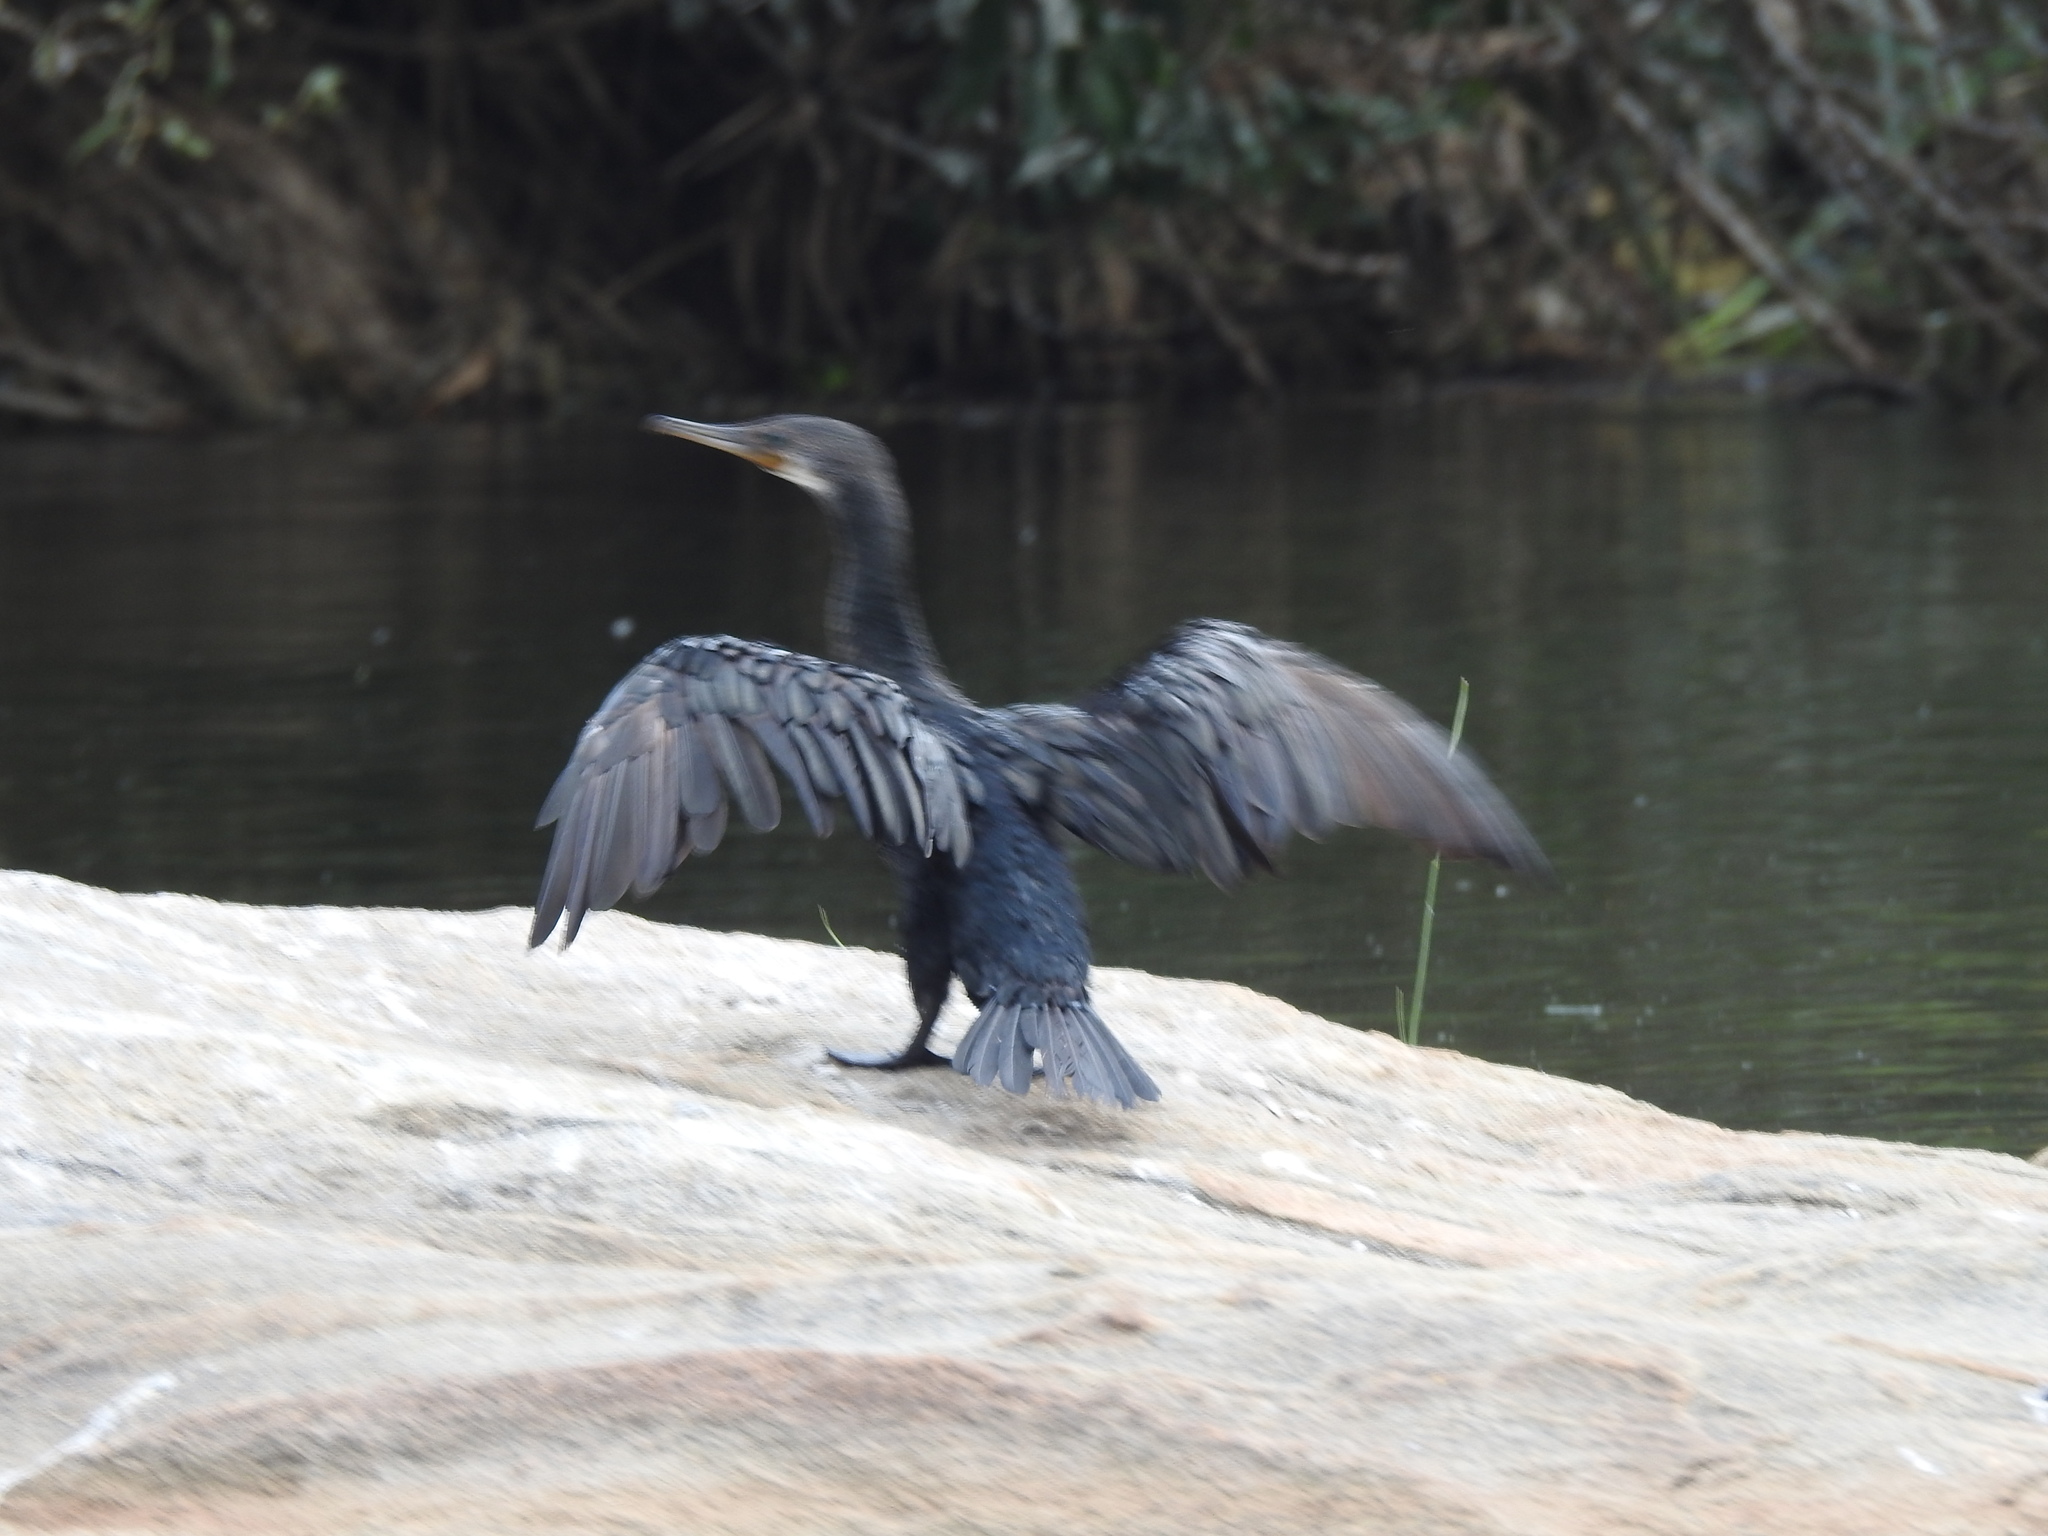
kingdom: Animalia
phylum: Chordata
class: Aves
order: Suliformes
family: Phalacrocoracidae
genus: Phalacrocorax
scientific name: Phalacrocorax fuscicollis
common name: Indian cormorant
